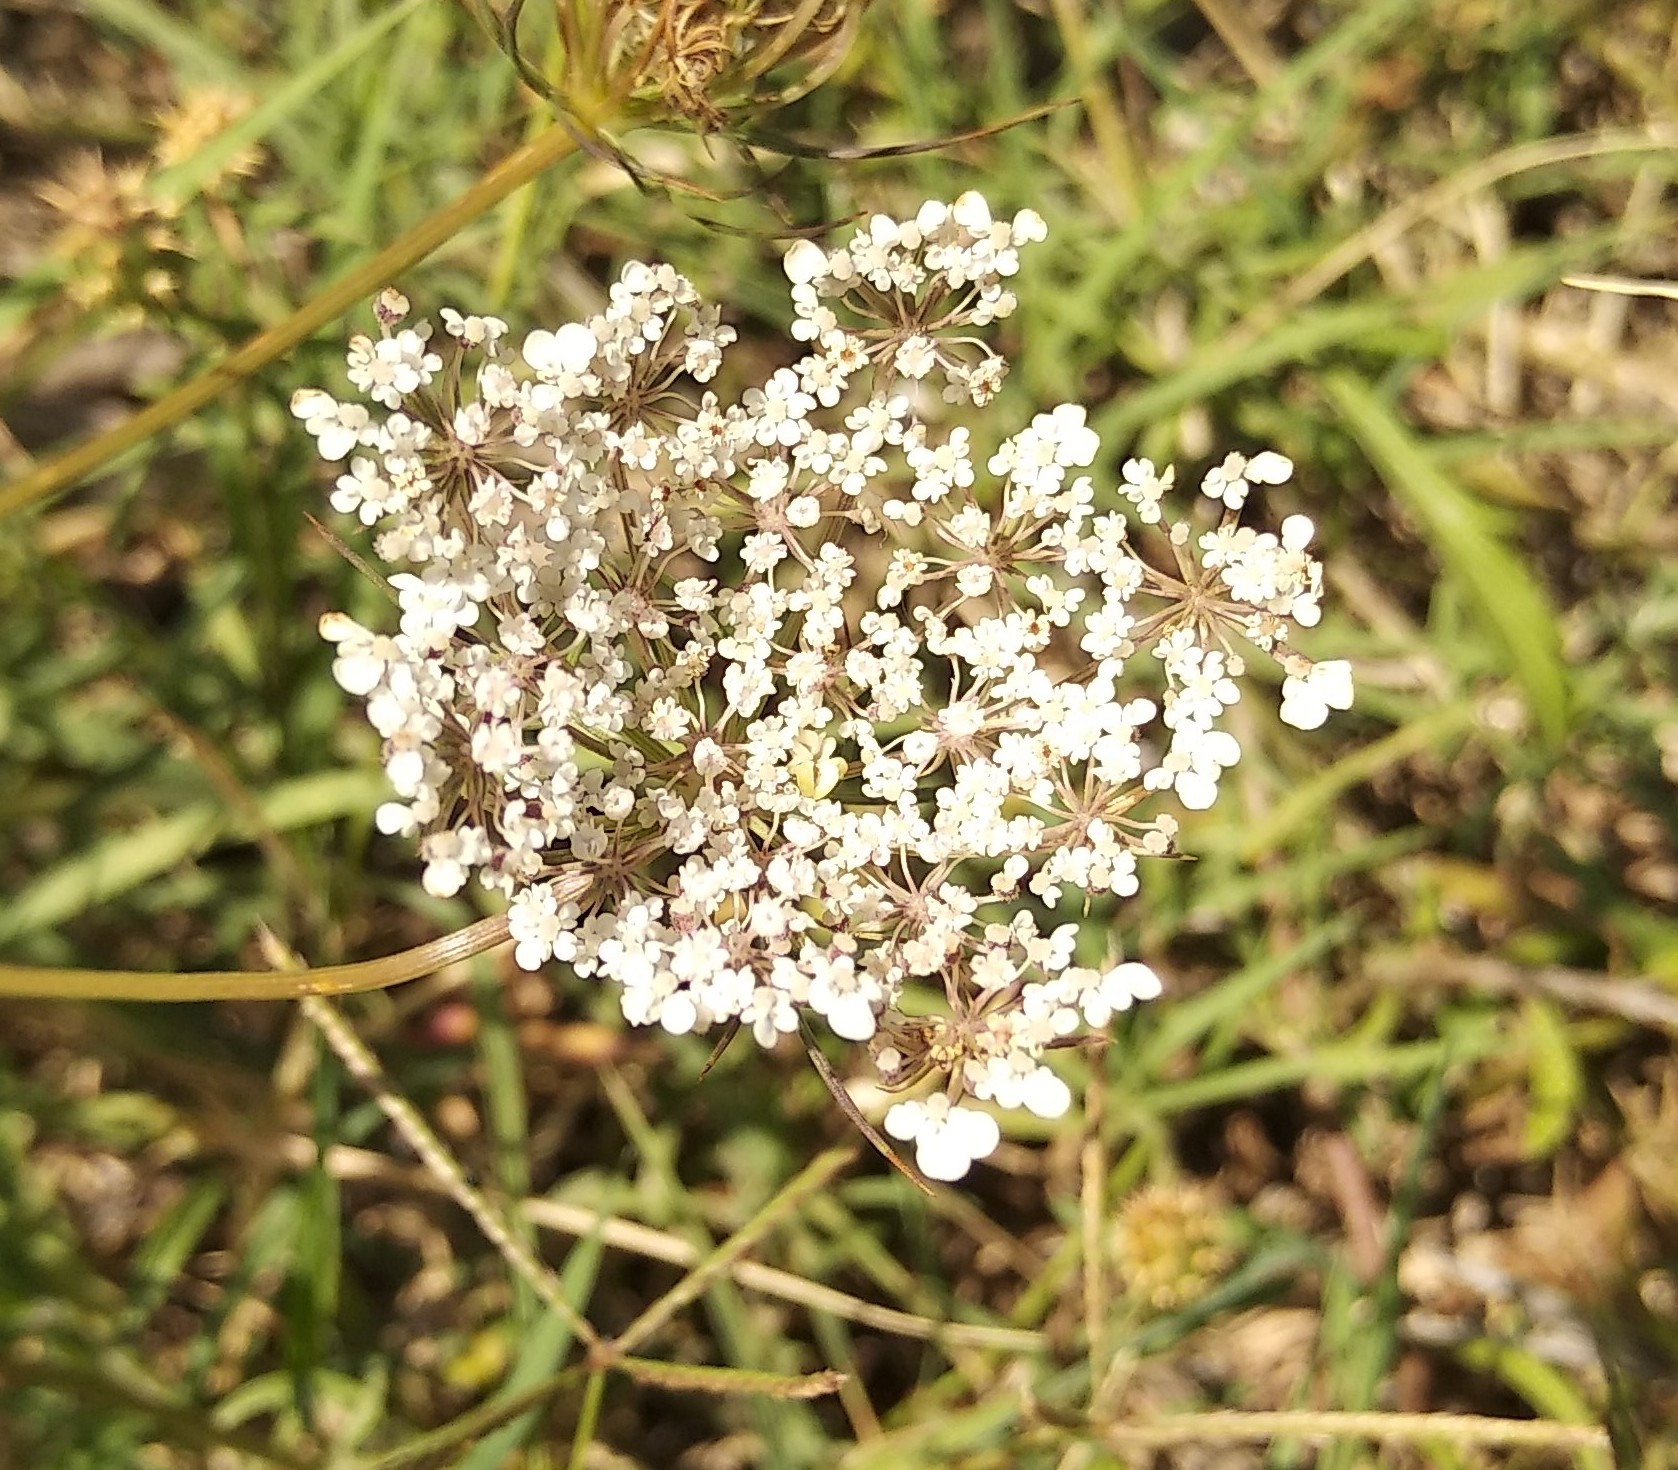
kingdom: Plantae
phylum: Tracheophyta
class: Magnoliopsida
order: Apiales
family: Apiaceae
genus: Daucus
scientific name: Daucus carota
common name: Wild carrot
